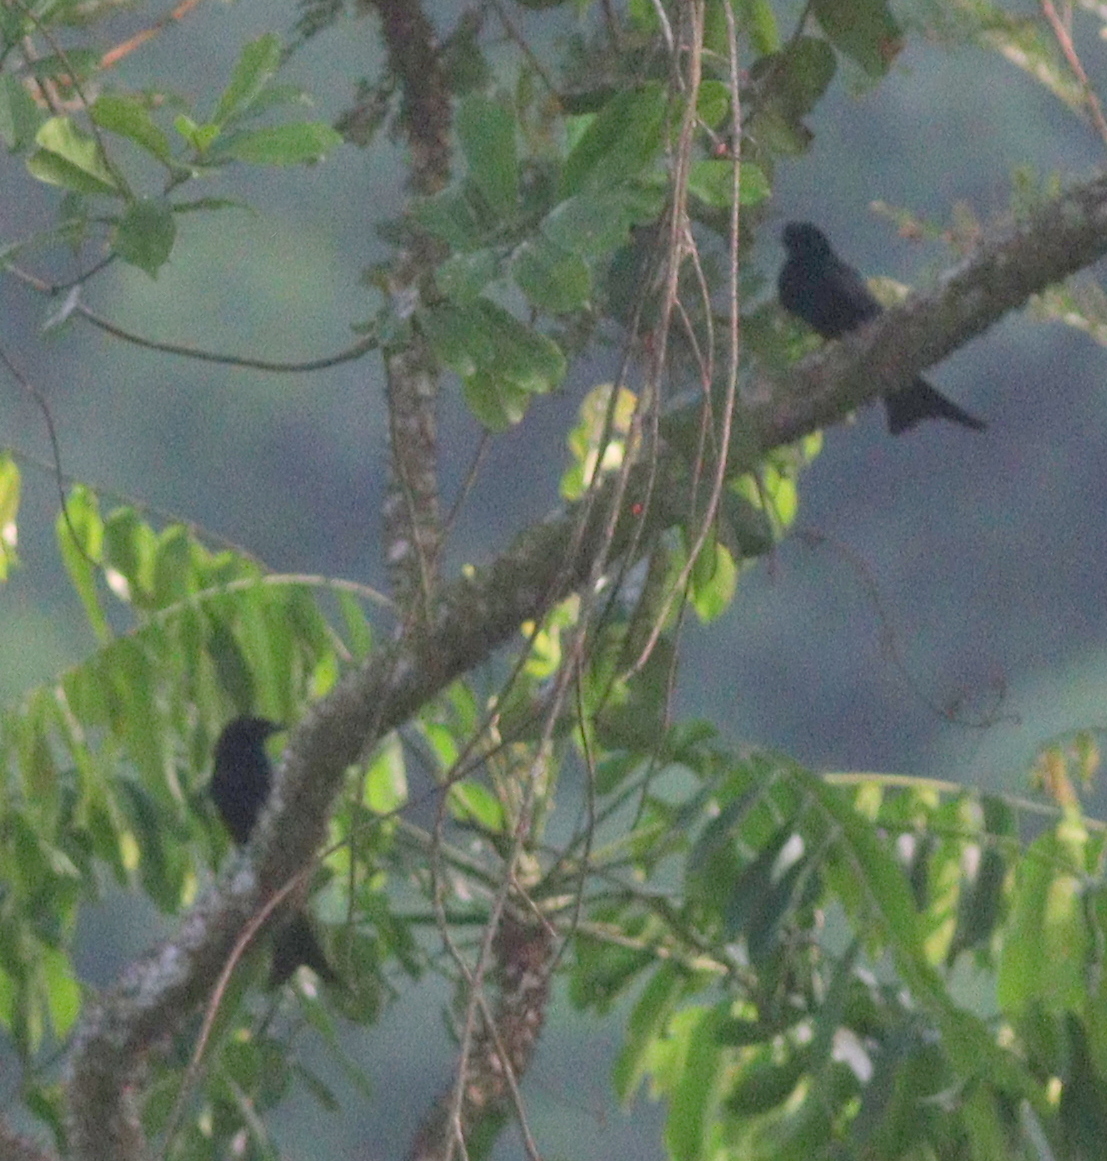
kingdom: Animalia
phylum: Chordata
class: Aves
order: Passeriformes
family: Dicruridae
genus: Dicrurus
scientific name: Dicrurus modestus
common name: Velvet-mantled drongo
